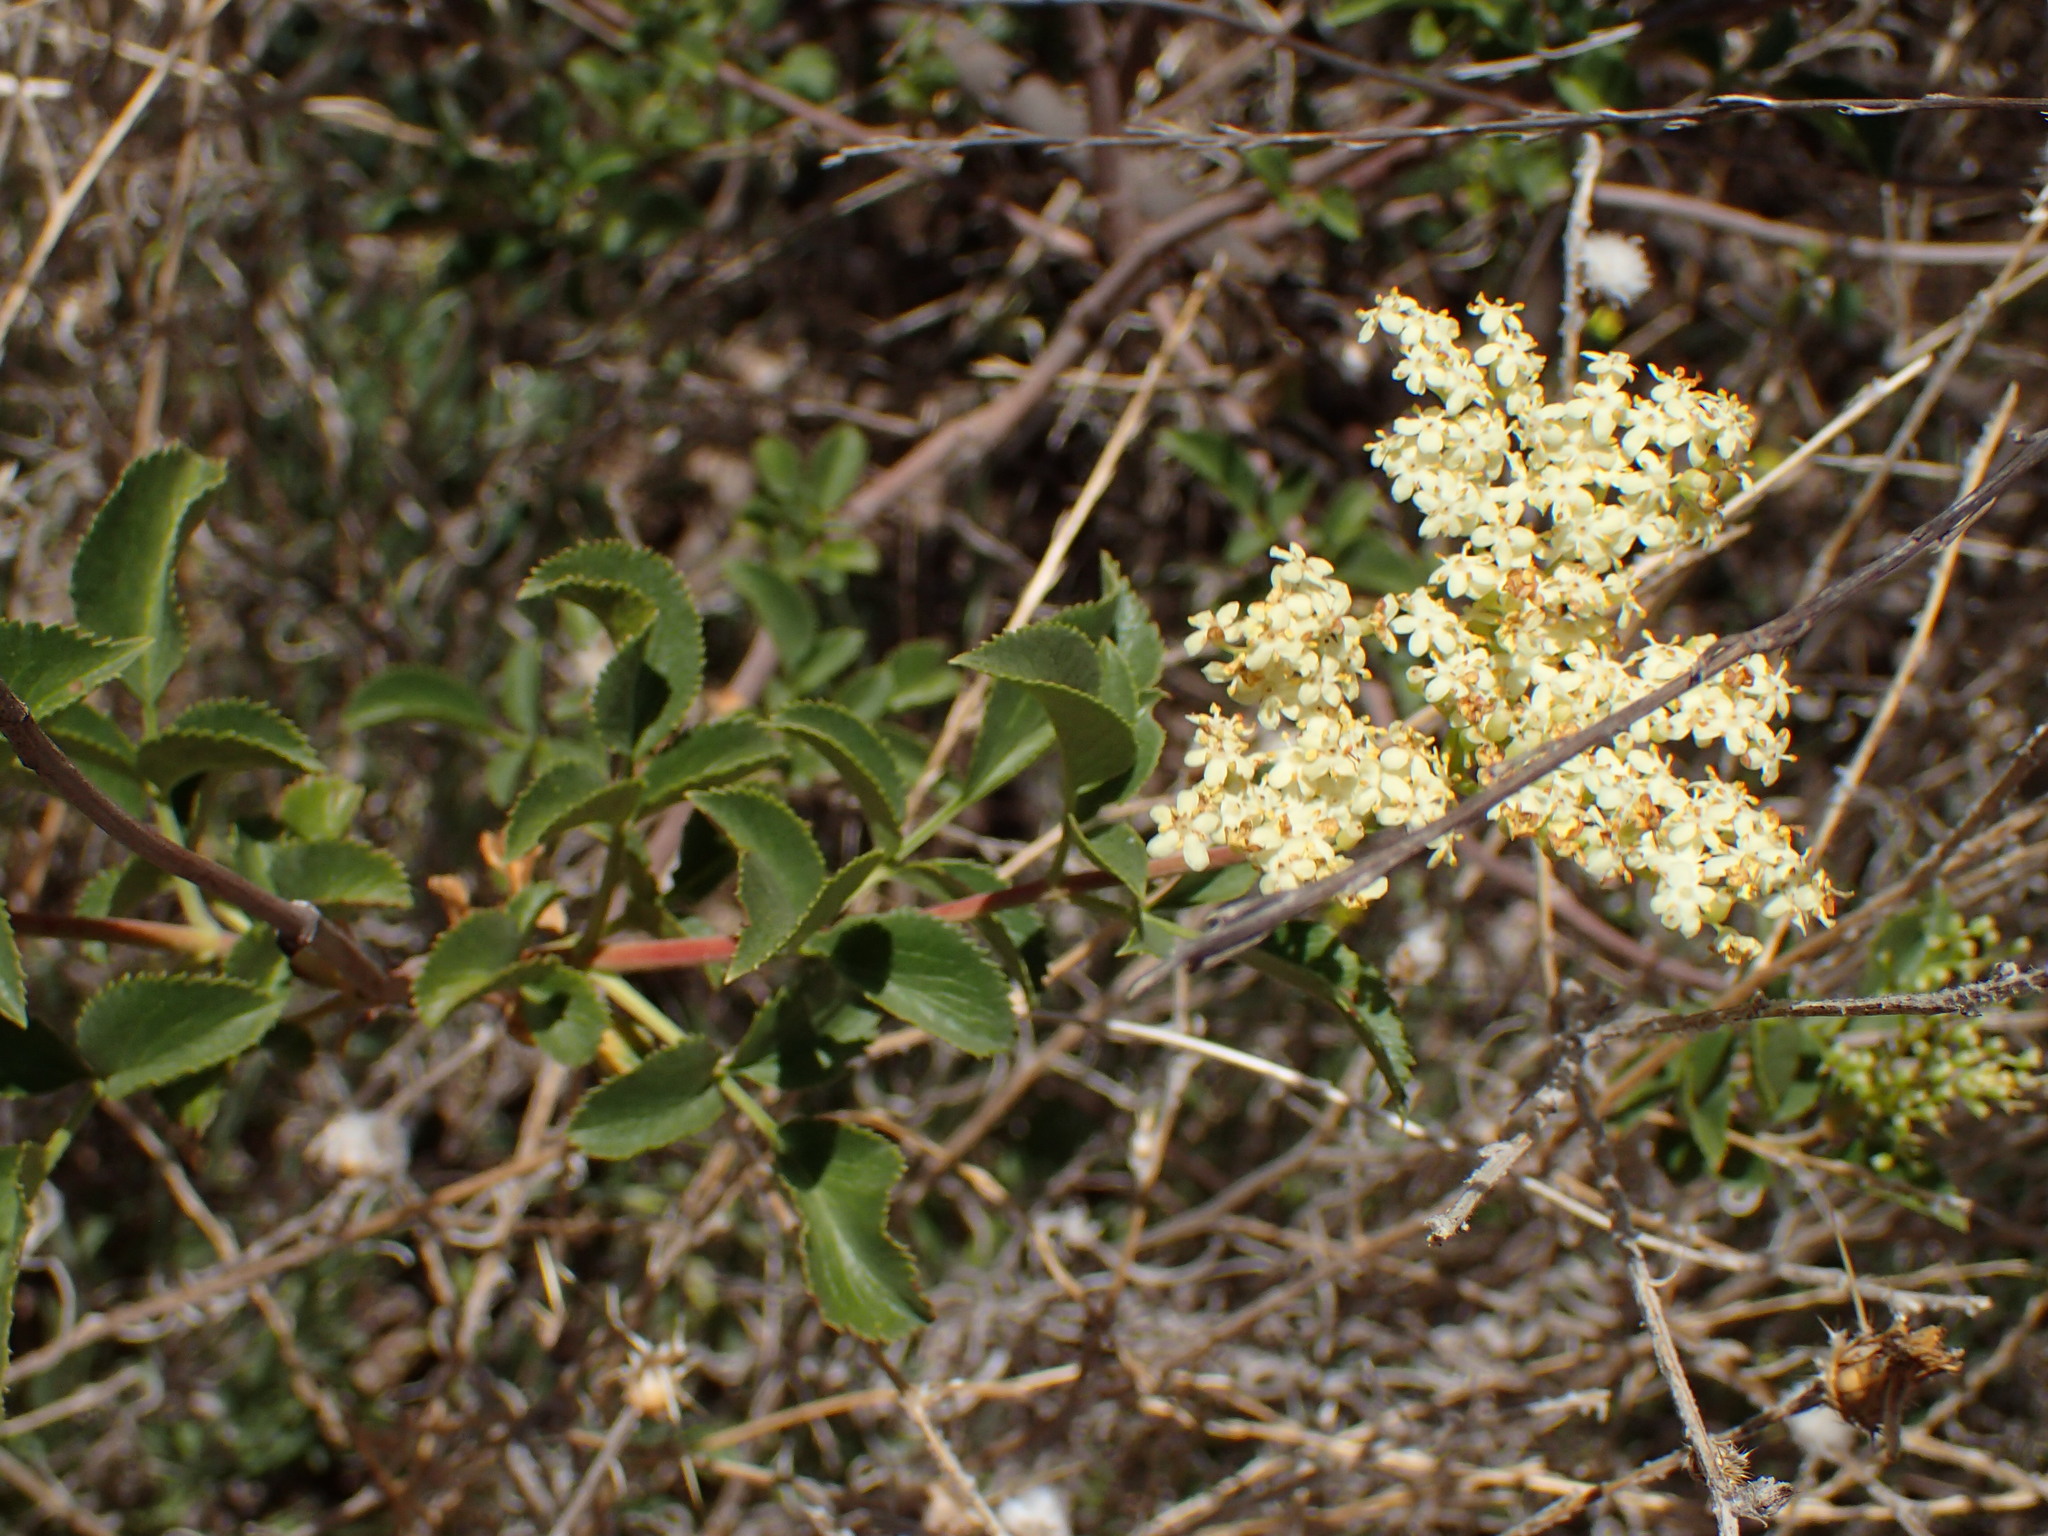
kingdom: Plantae
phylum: Tracheophyta
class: Magnoliopsida
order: Dipsacales
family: Viburnaceae
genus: Sambucus
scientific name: Sambucus cerulea
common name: Blue elder
